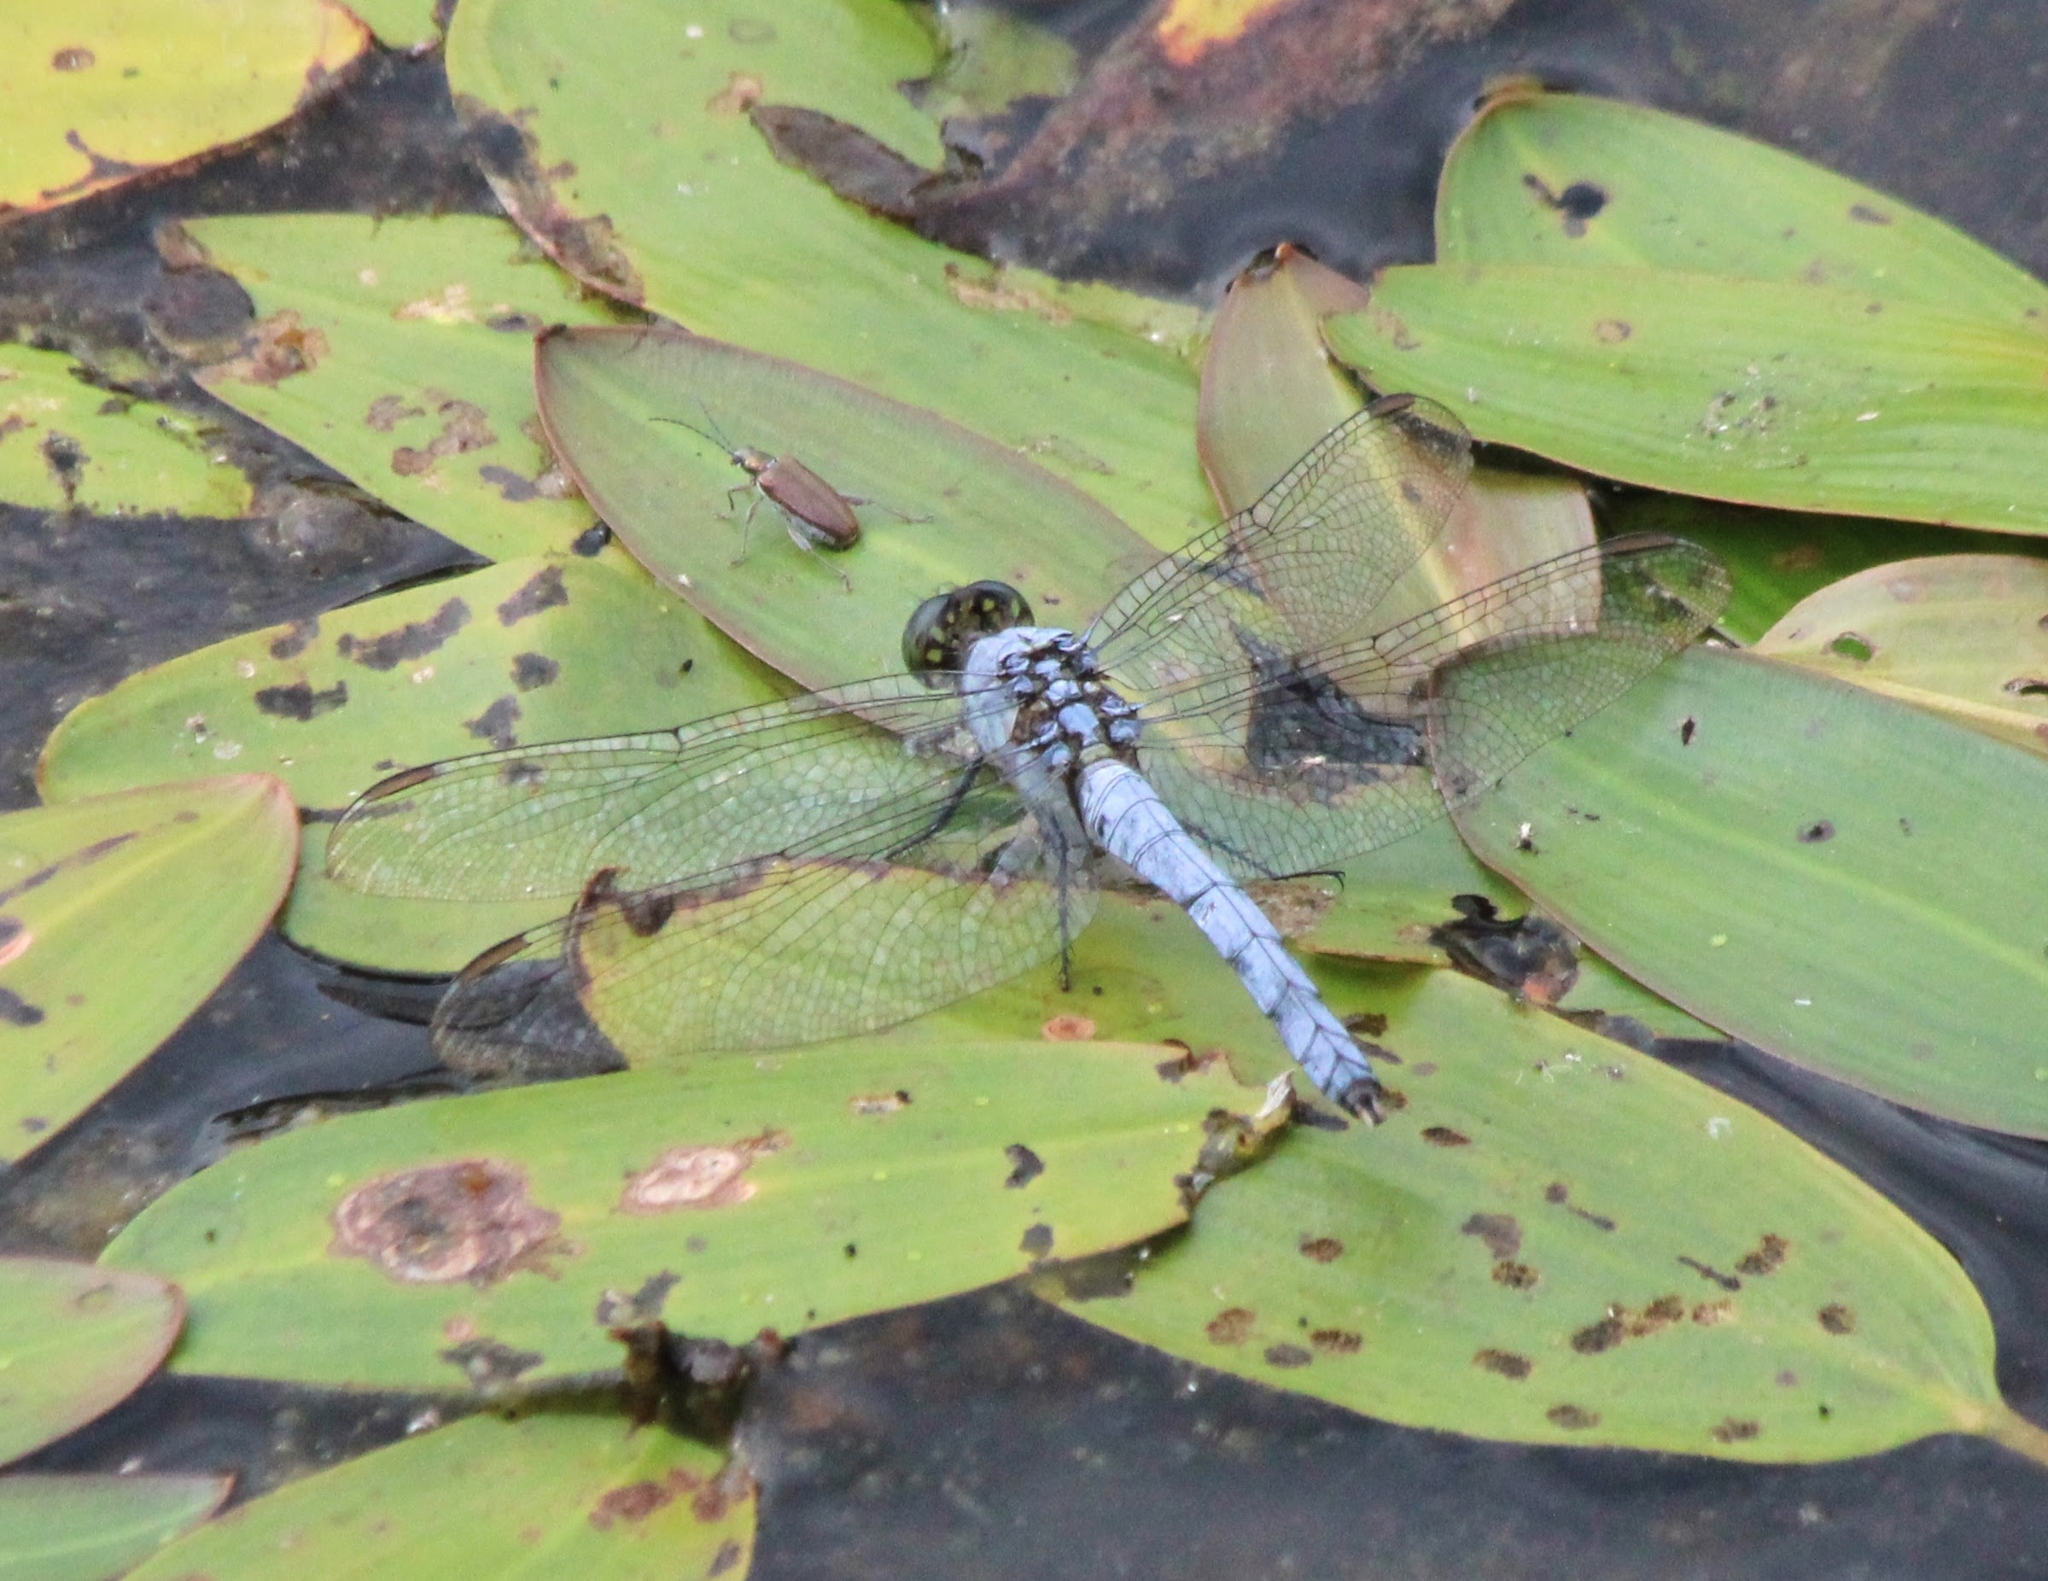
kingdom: Animalia
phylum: Arthropoda
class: Insecta
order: Odonata
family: Libellulidae
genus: Erythemis
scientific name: Erythemis simplicicollis
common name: Eastern pondhawk
